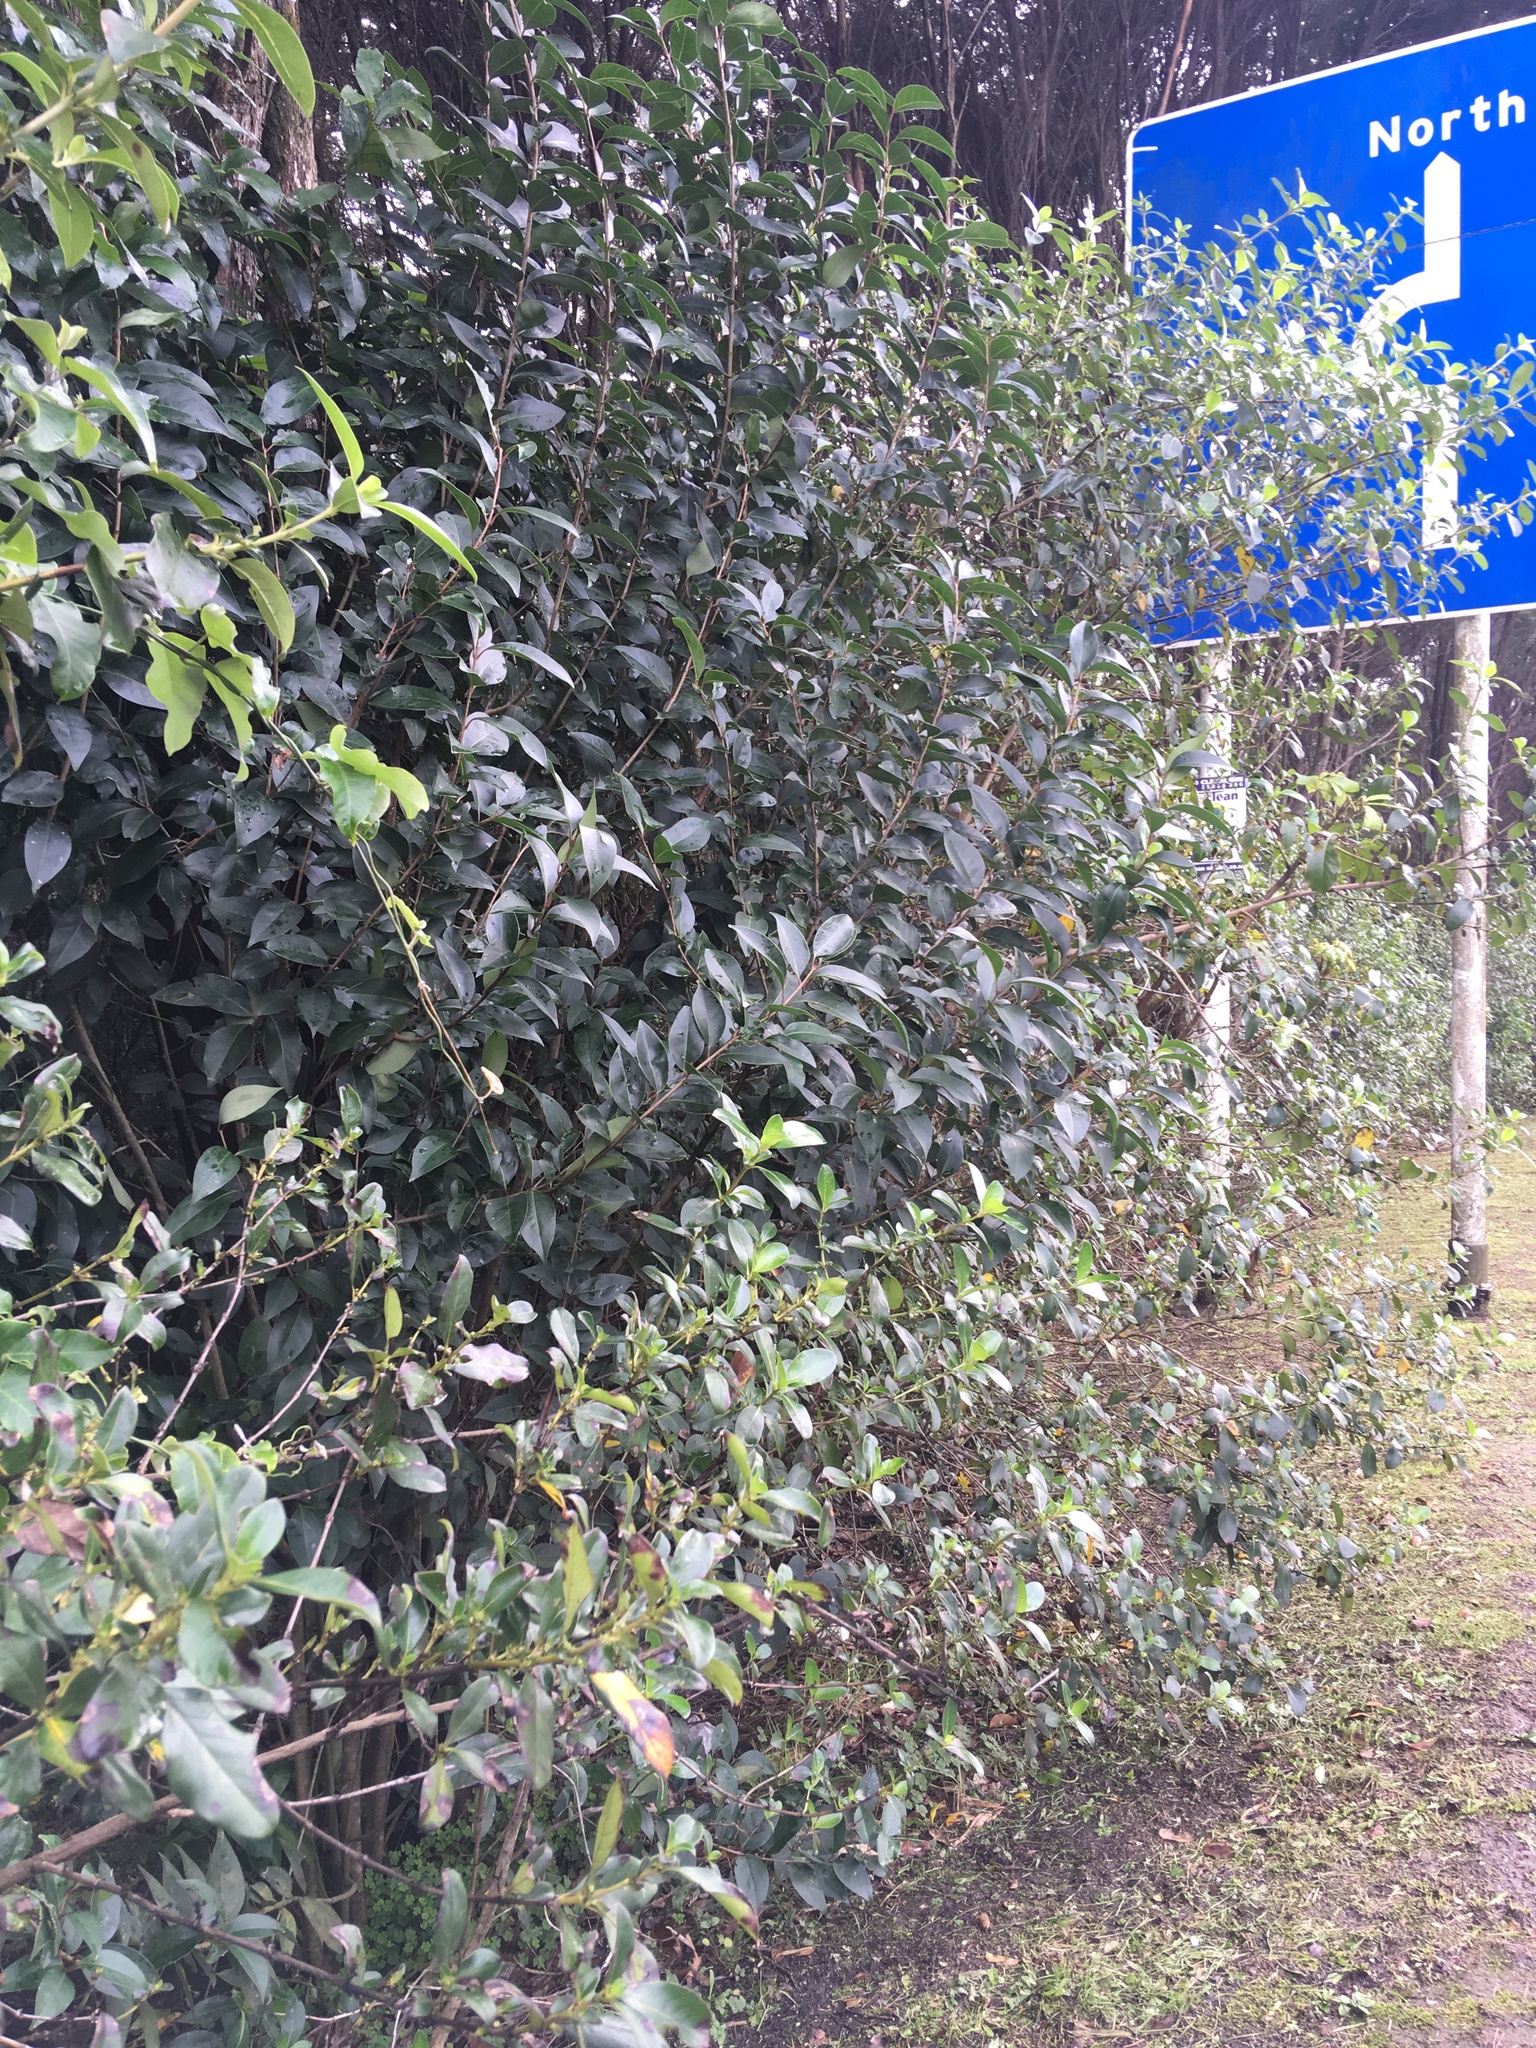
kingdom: Plantae
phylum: Tracheophyta
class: Magnoliopsida
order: Gentianales
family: Apocynaceae
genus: Araujia
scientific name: Araujia sericifera
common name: White bladderflower
